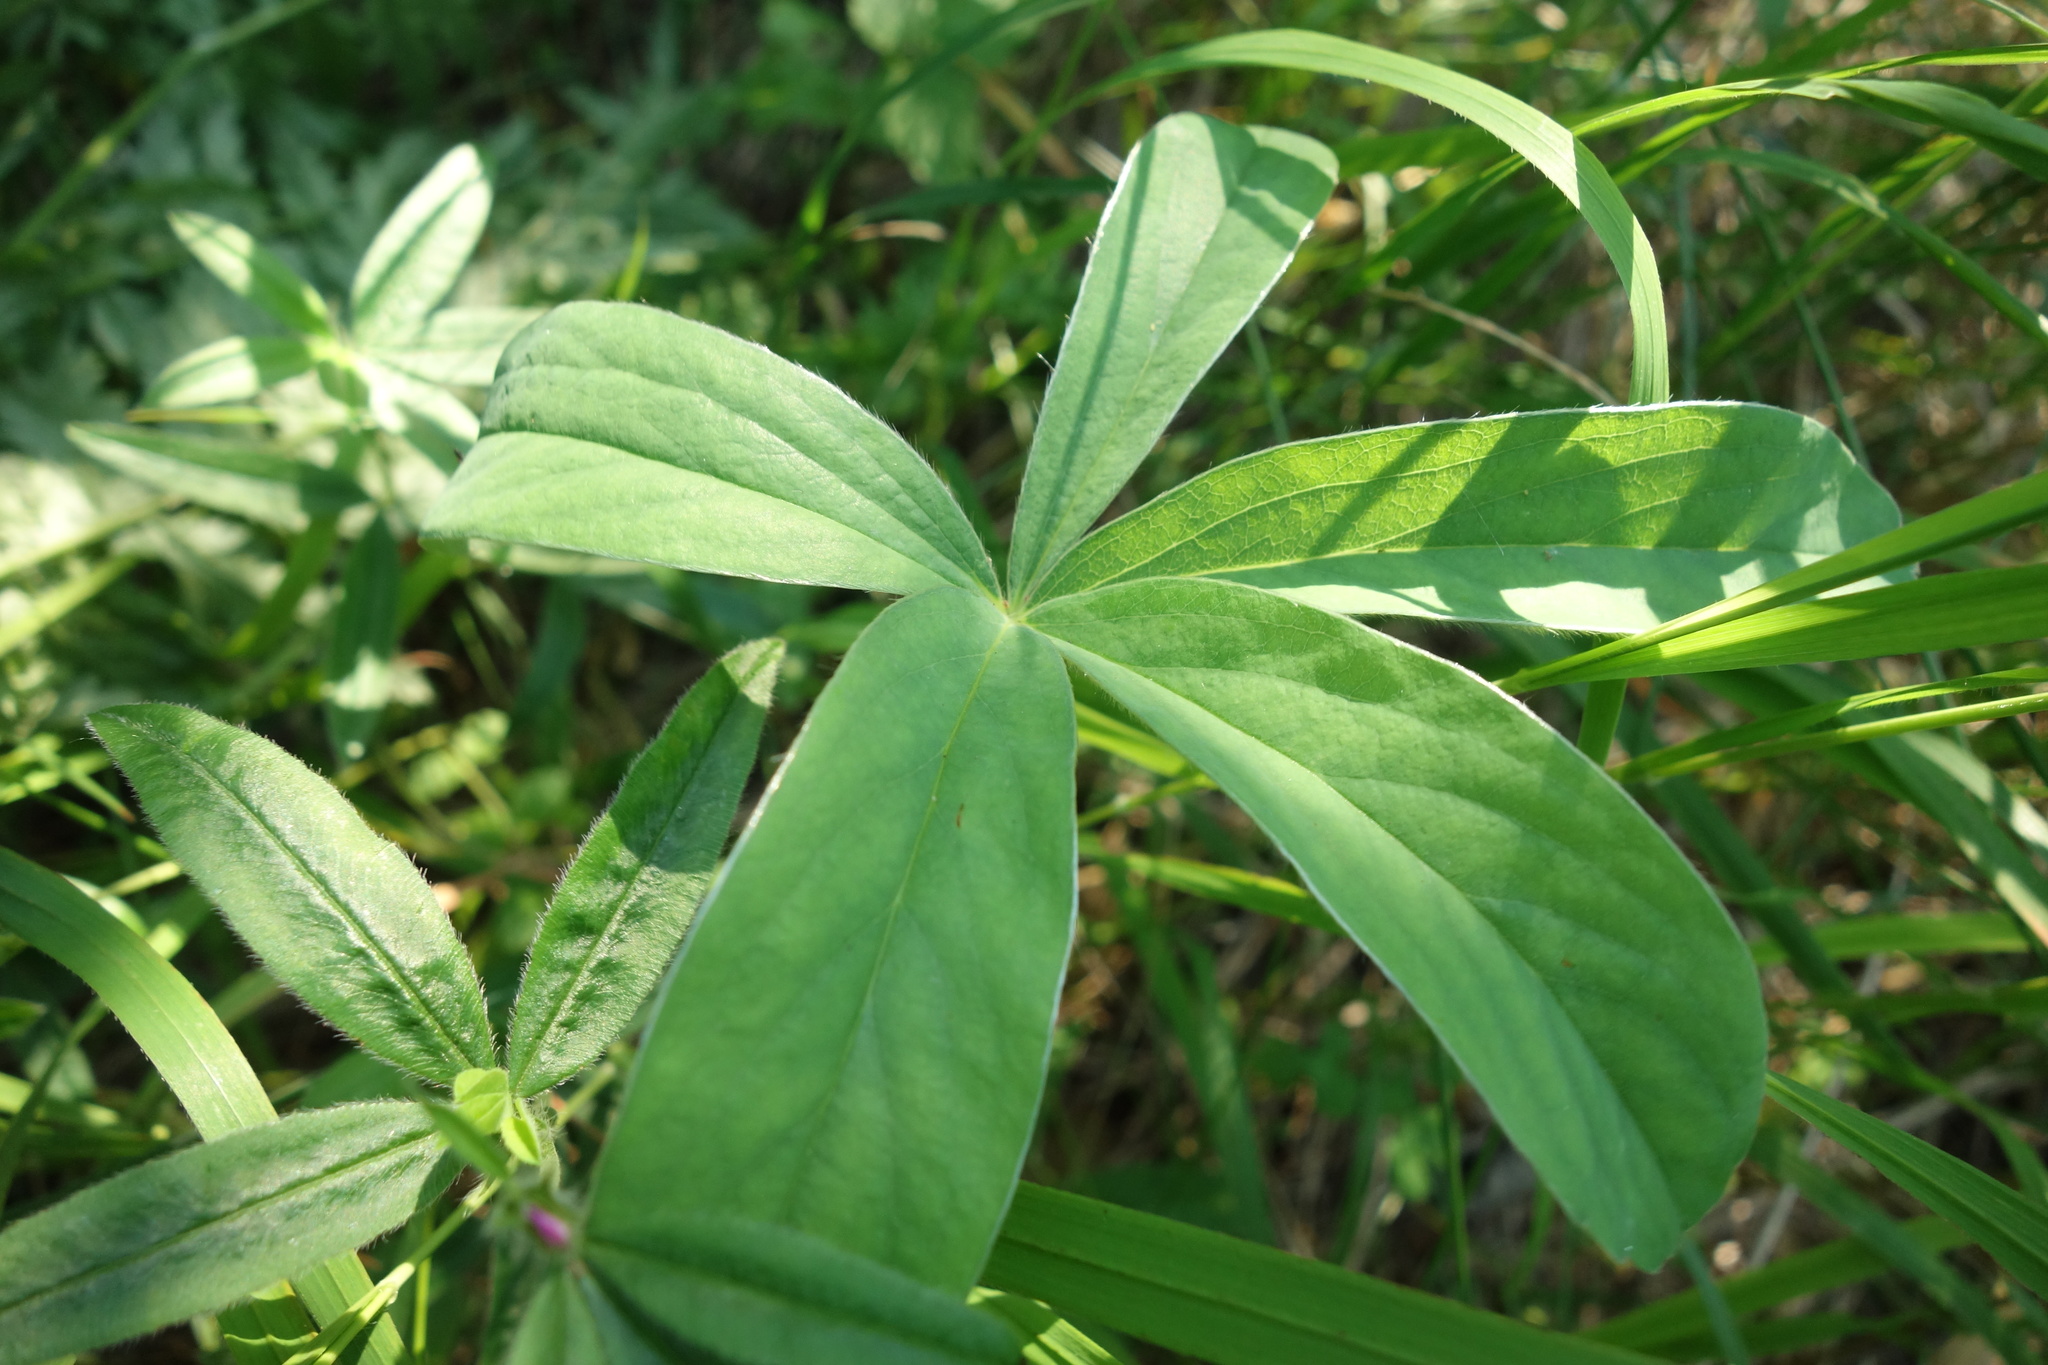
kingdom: Plantae
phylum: Tracheophyta
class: Magnoliopsida
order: Rosales
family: Rosaceae
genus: Potentilla
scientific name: Potentilla alba
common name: White cinquefoil
